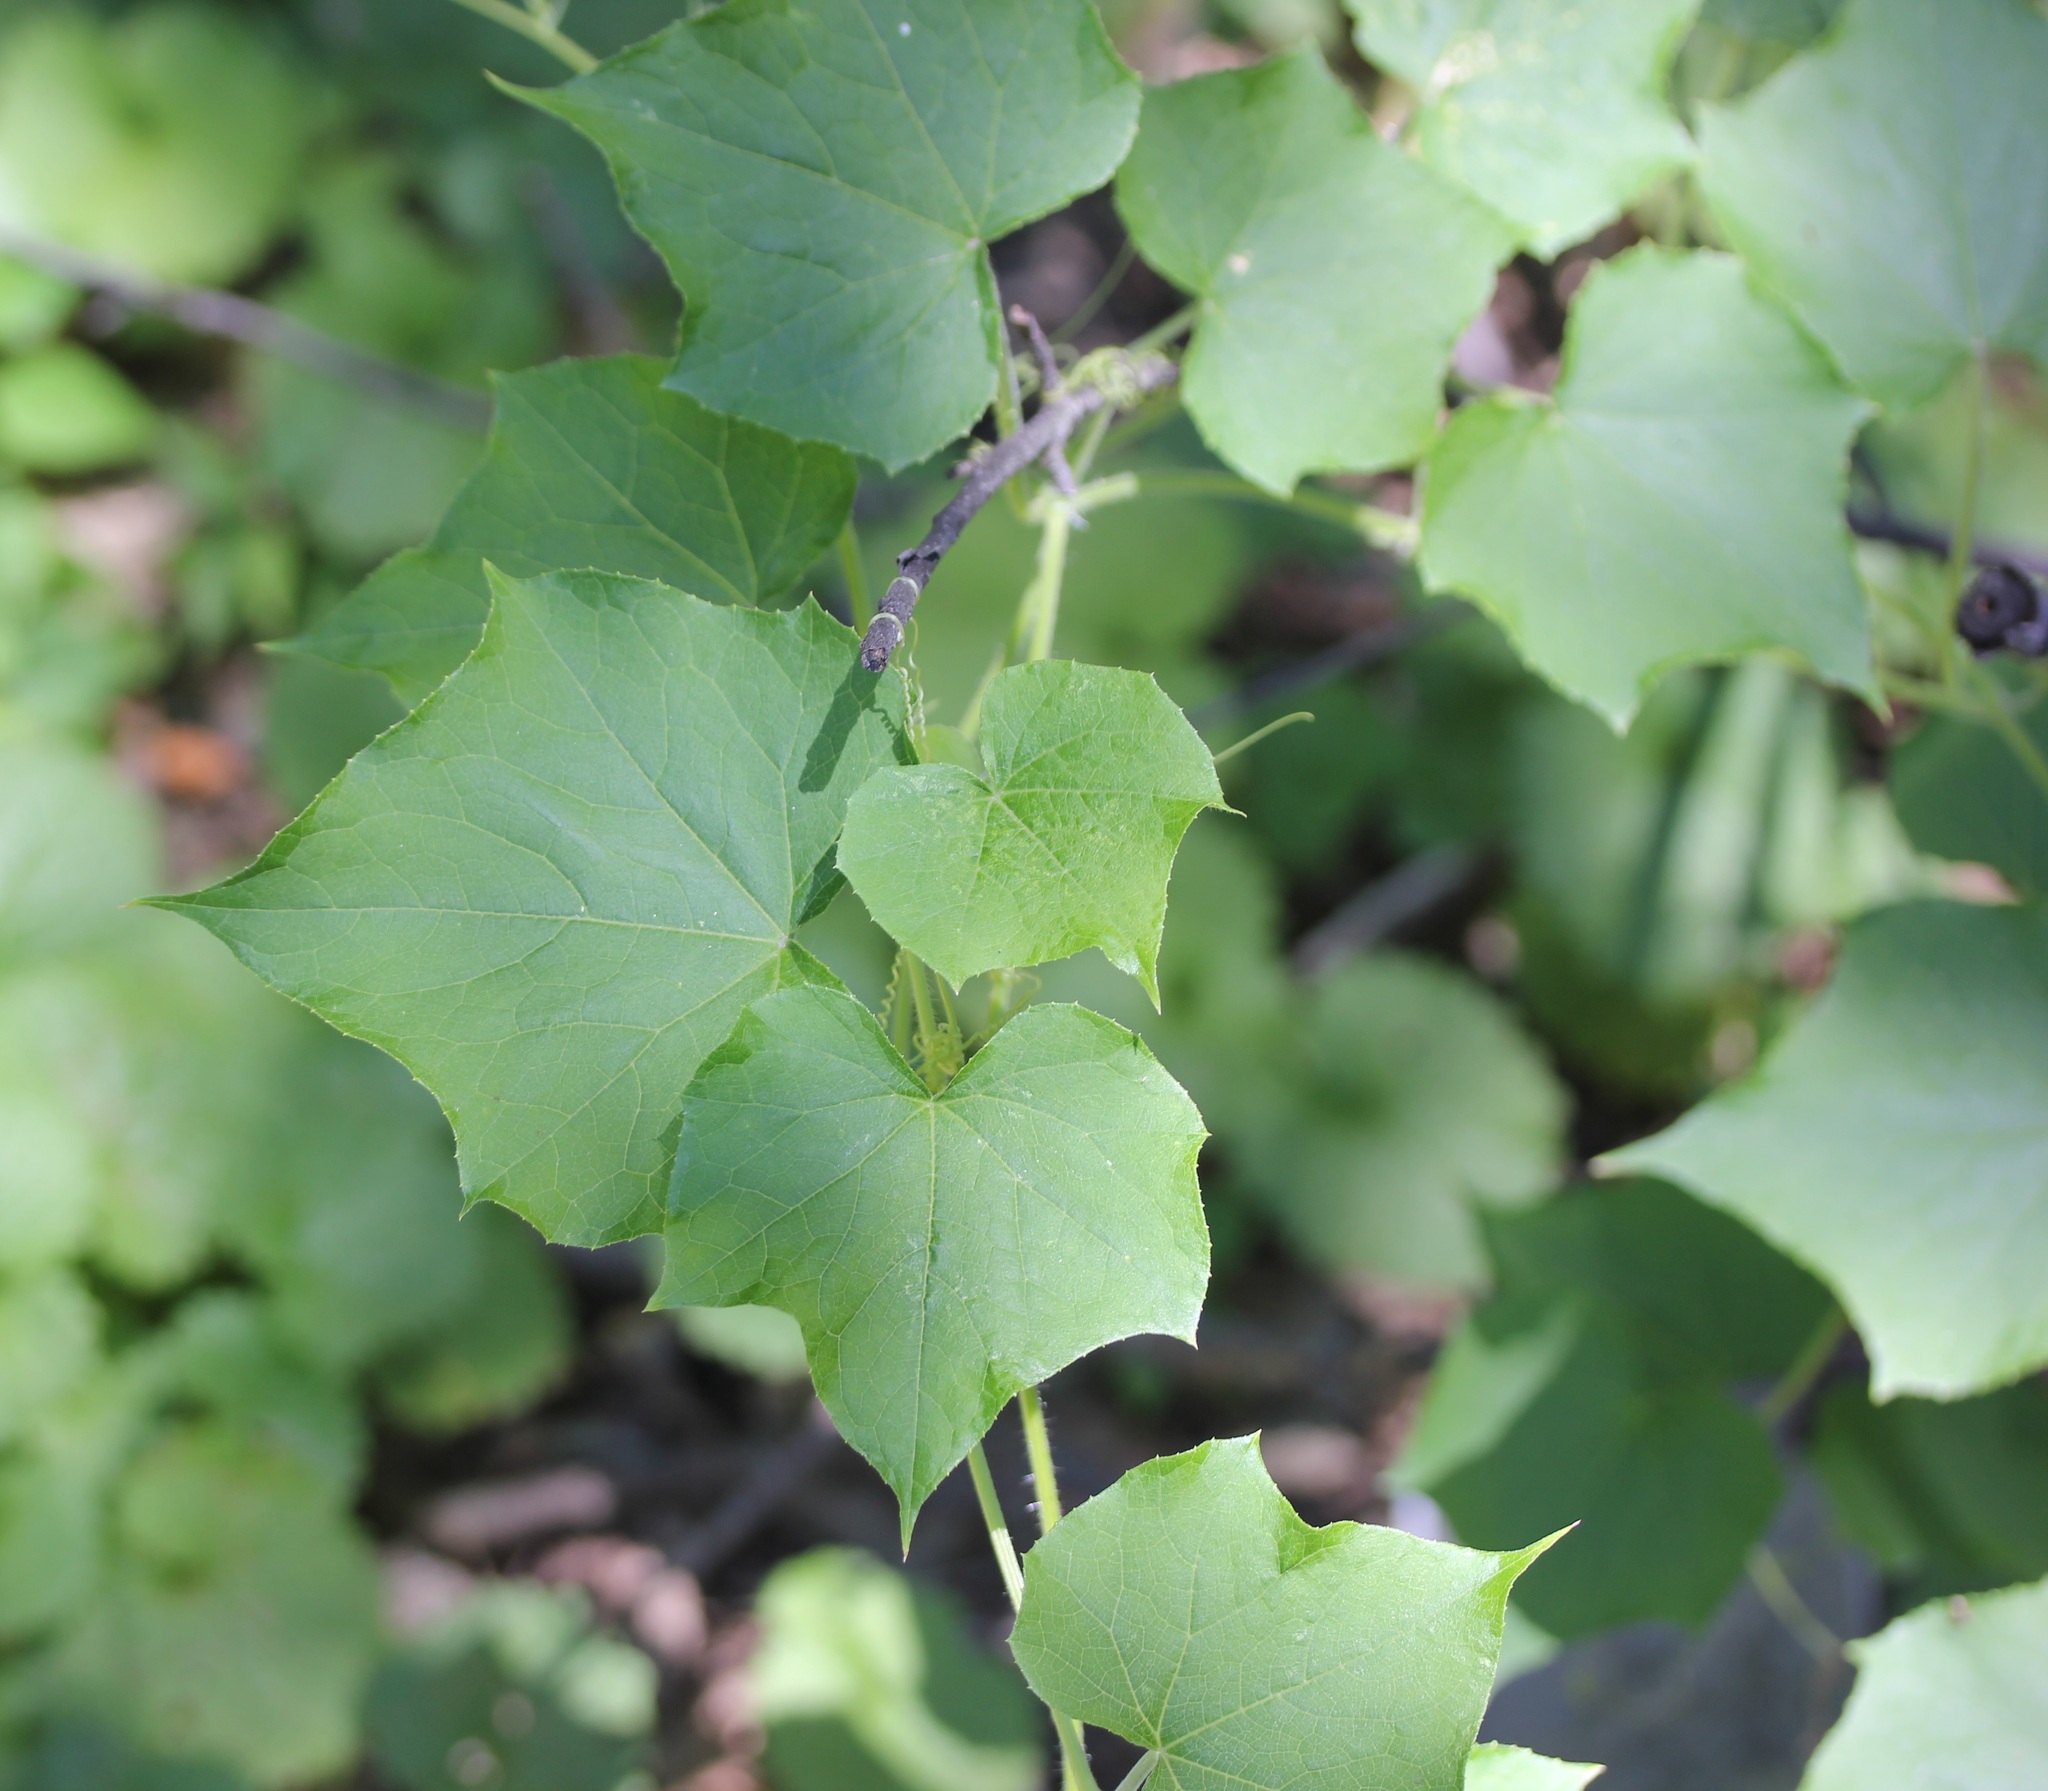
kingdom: Plantae
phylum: Tracheophyta
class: Magnoliopsida
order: Cucurbitales
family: Cucurbitaceae
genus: Sicyos
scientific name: Sicyos angulatus
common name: Angled burr cucumber
